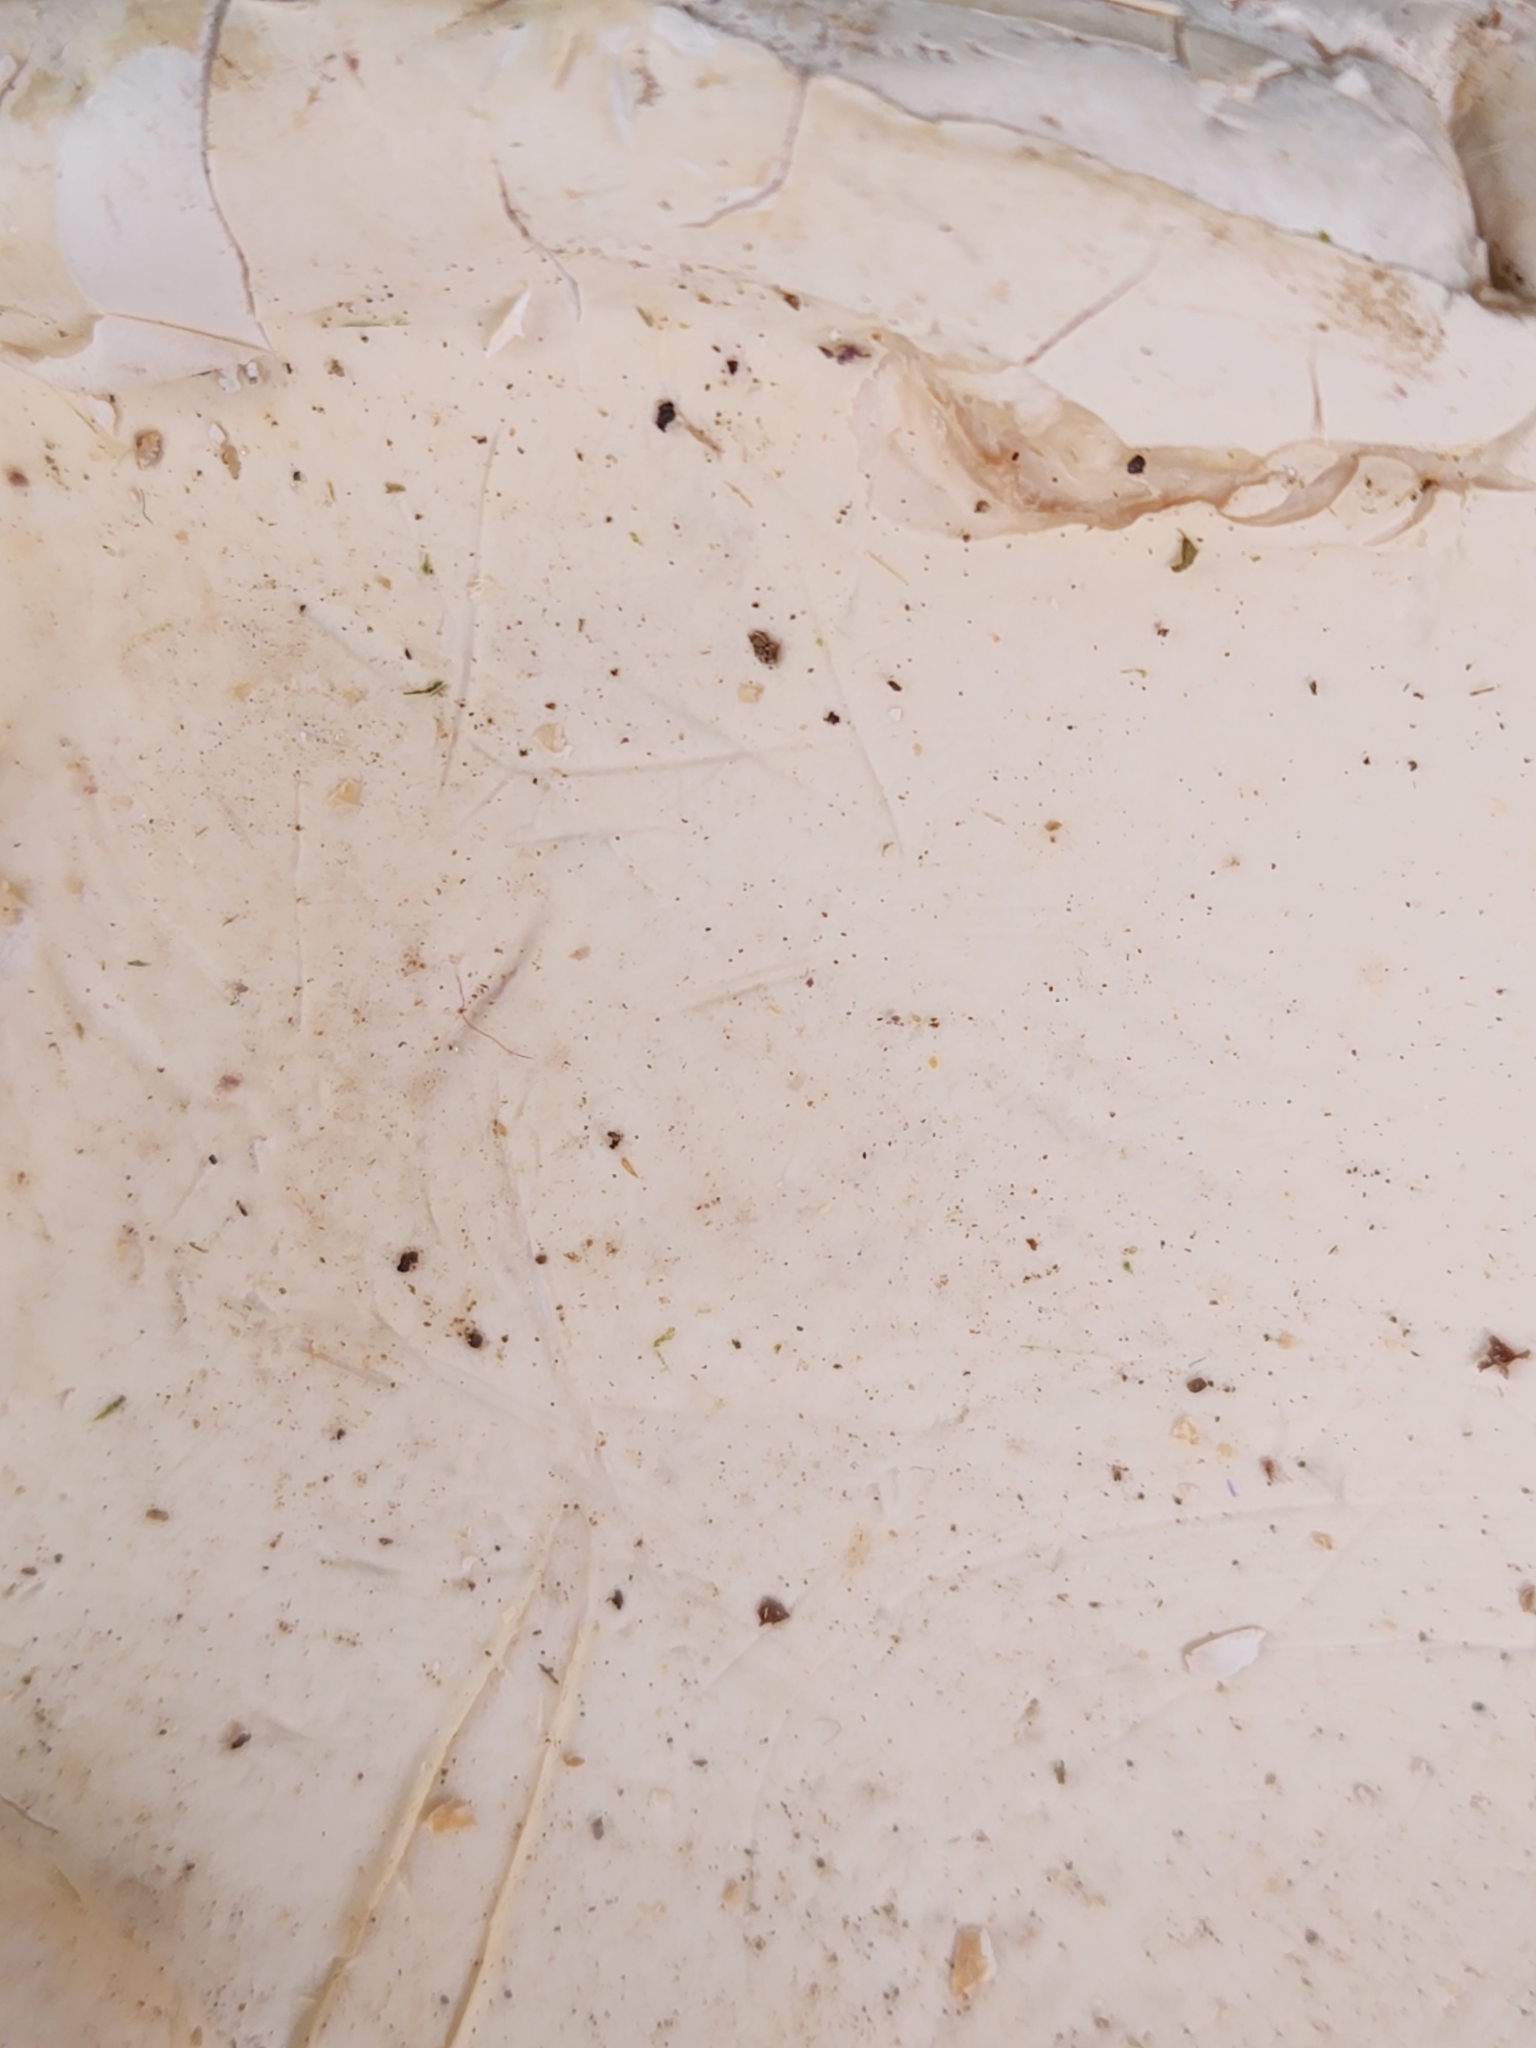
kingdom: Fungi
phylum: Basidiomycota
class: Agaricomycetes
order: Polyporales
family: Fomitopsidaceae
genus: Fomitopsis
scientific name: Fomitopsis betulina
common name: Birch polypore
